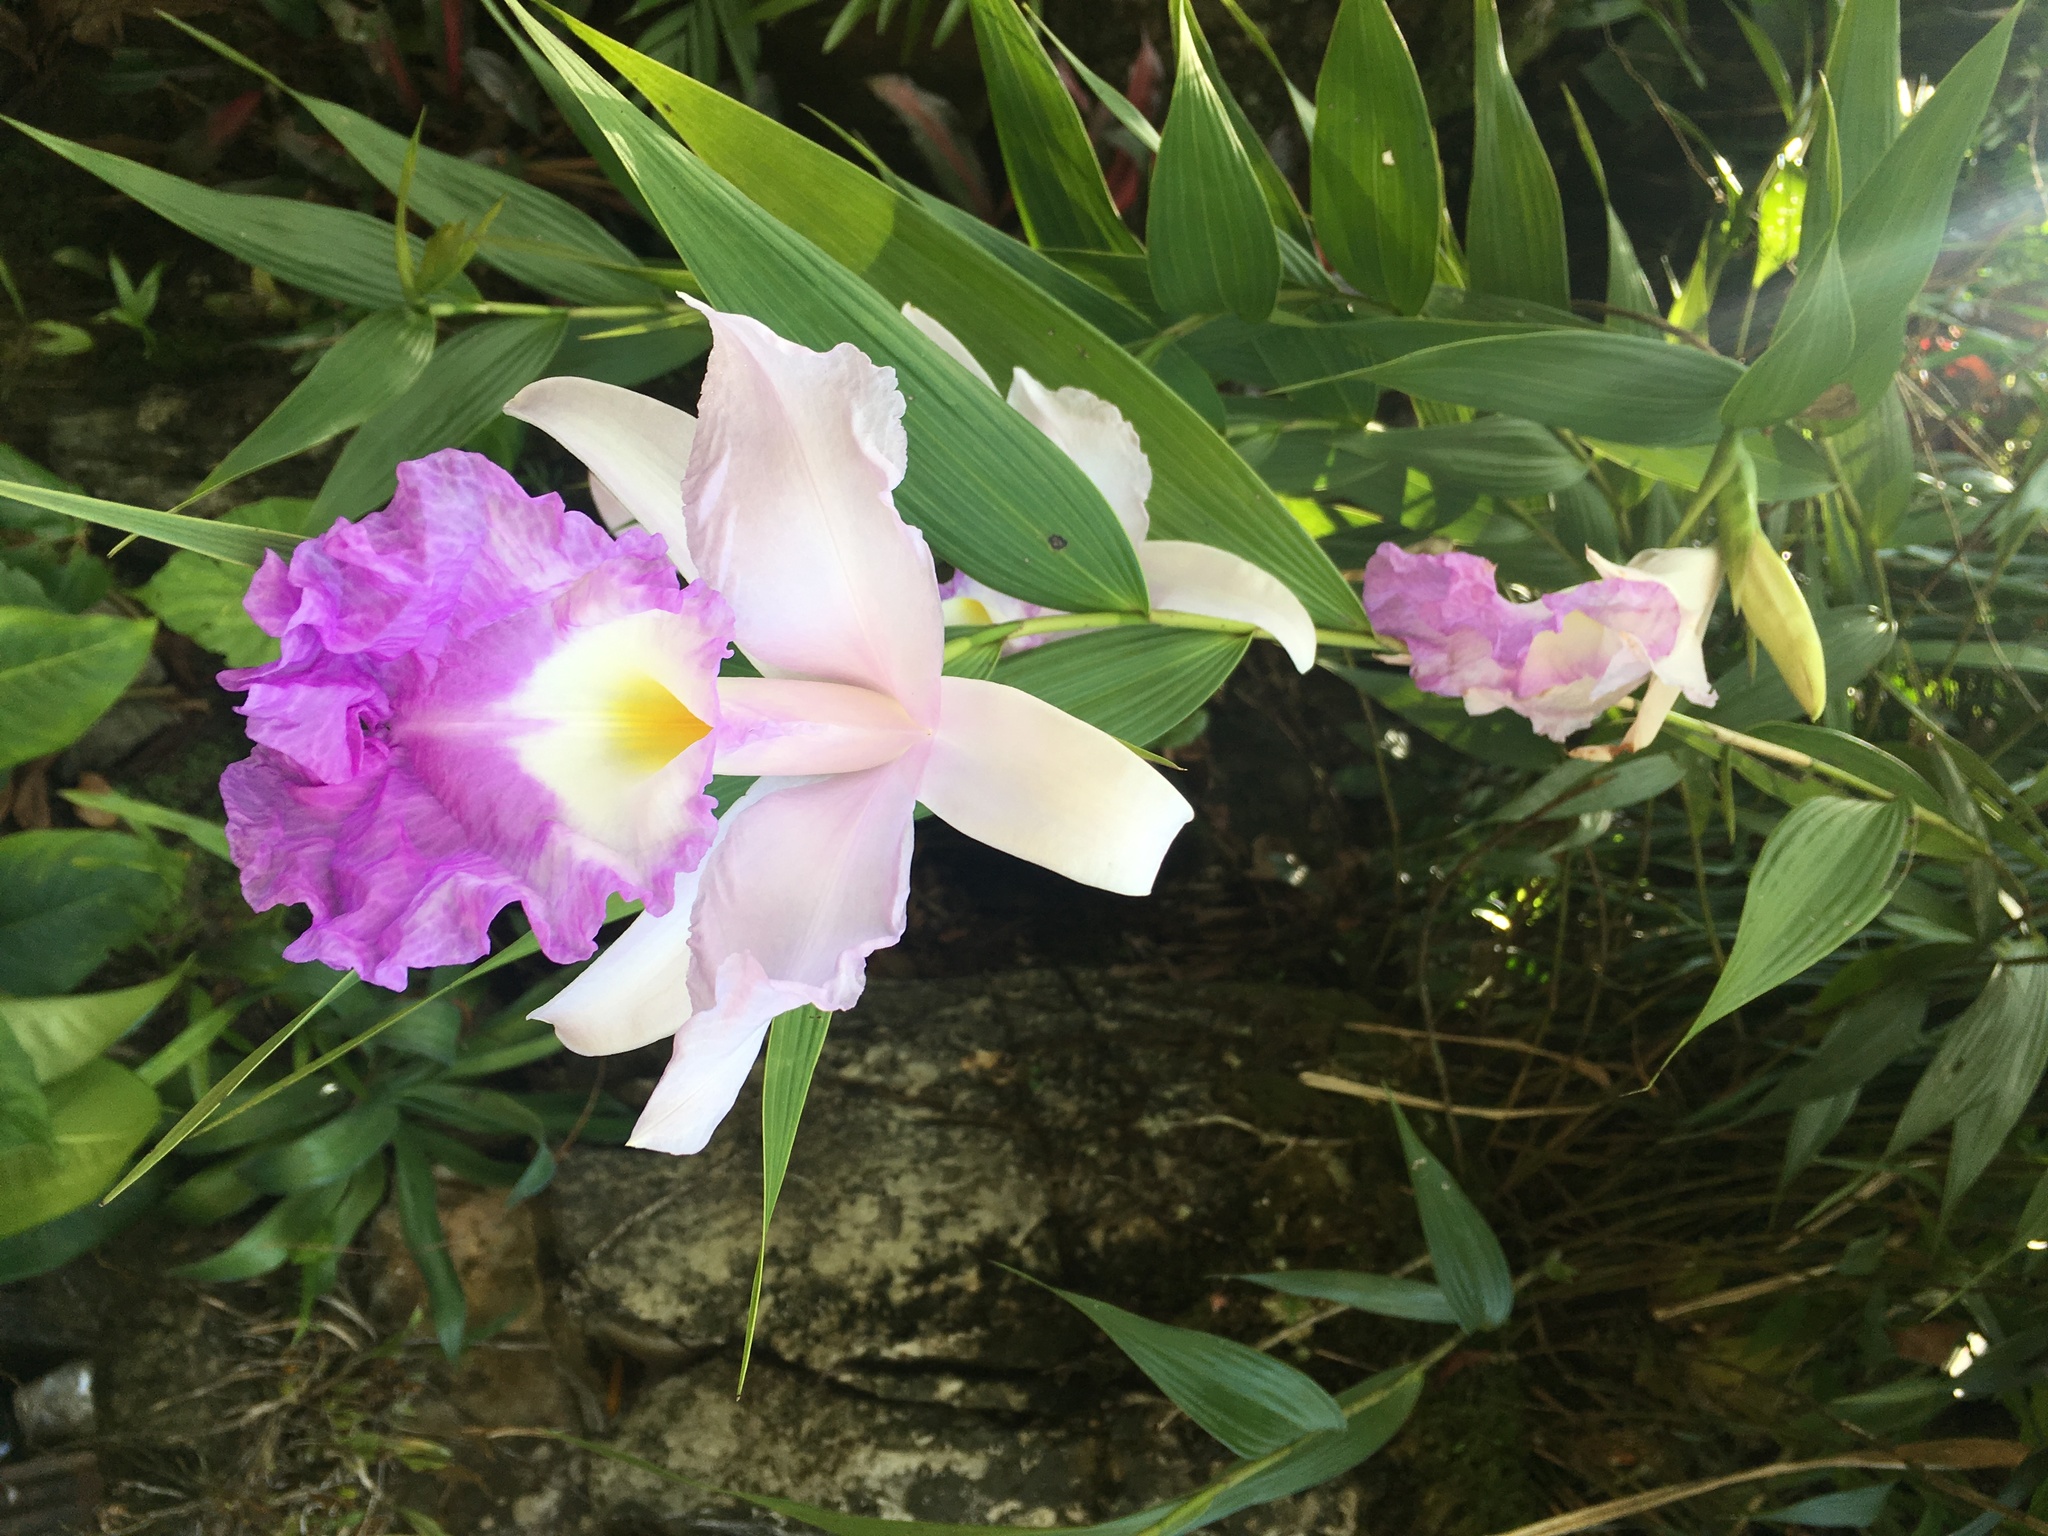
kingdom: Plantae
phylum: Tracheophyta
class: Liliopsida
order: Asparagales
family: Orchidaceae
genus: Sobralia
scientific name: Sobralia macrantha
